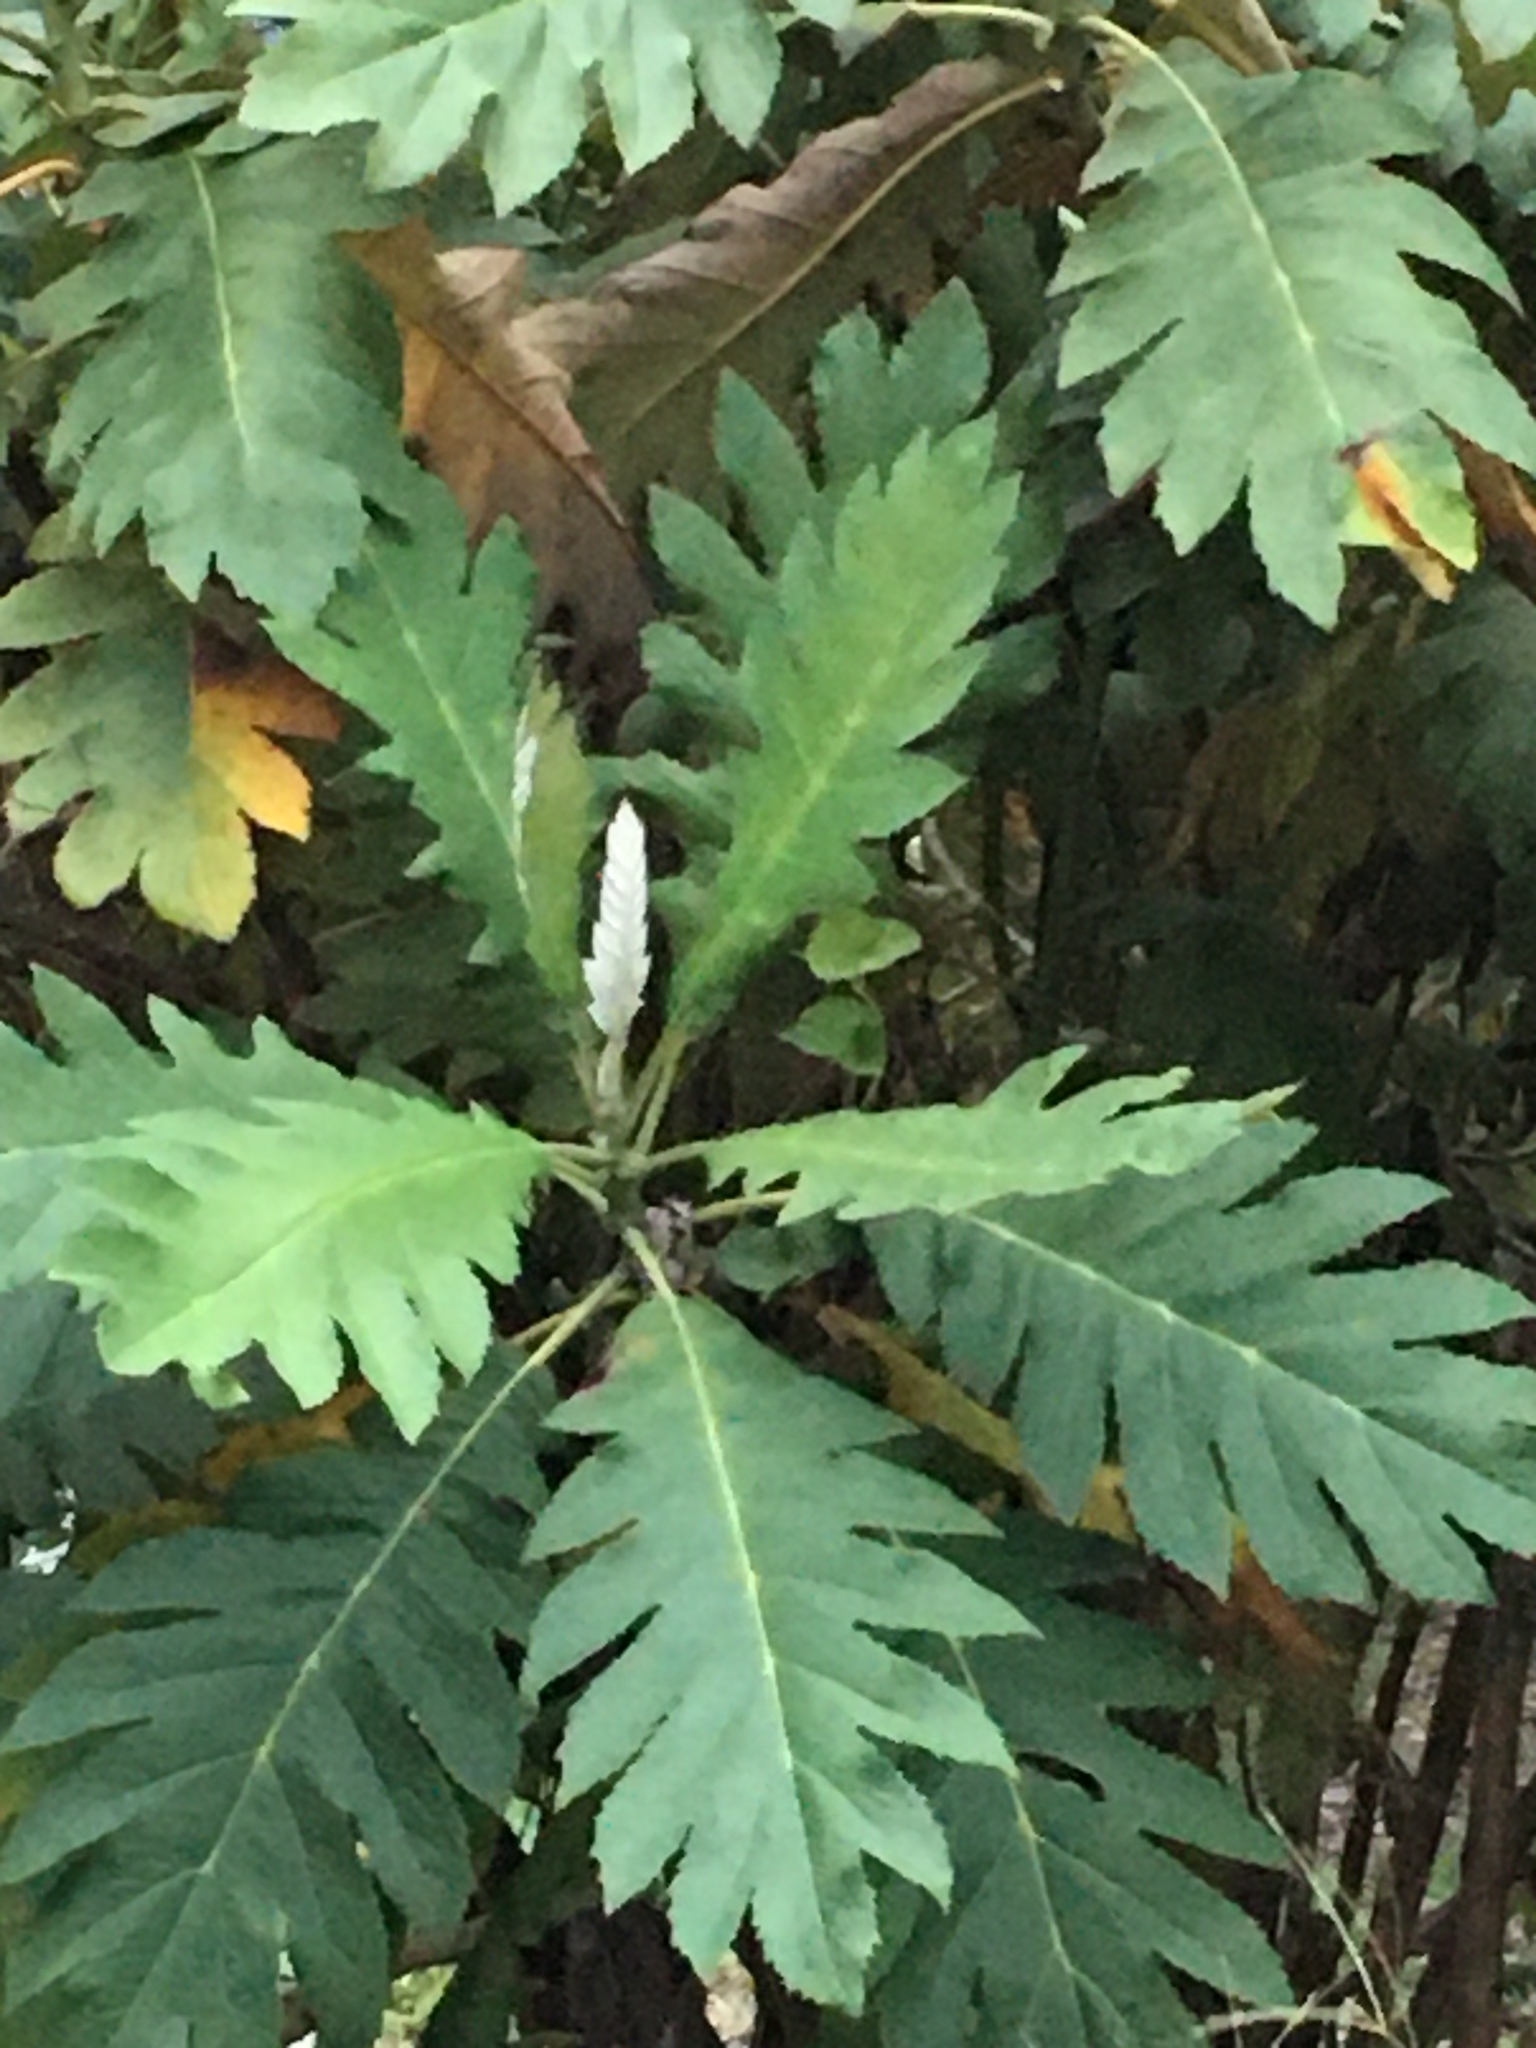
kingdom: Plantae
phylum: Tracheophyta
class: Magnoliopsida
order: Ranunculales
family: Papaveraceae
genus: Bocconia
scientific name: Bocconia frutescens
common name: Tree poppy
